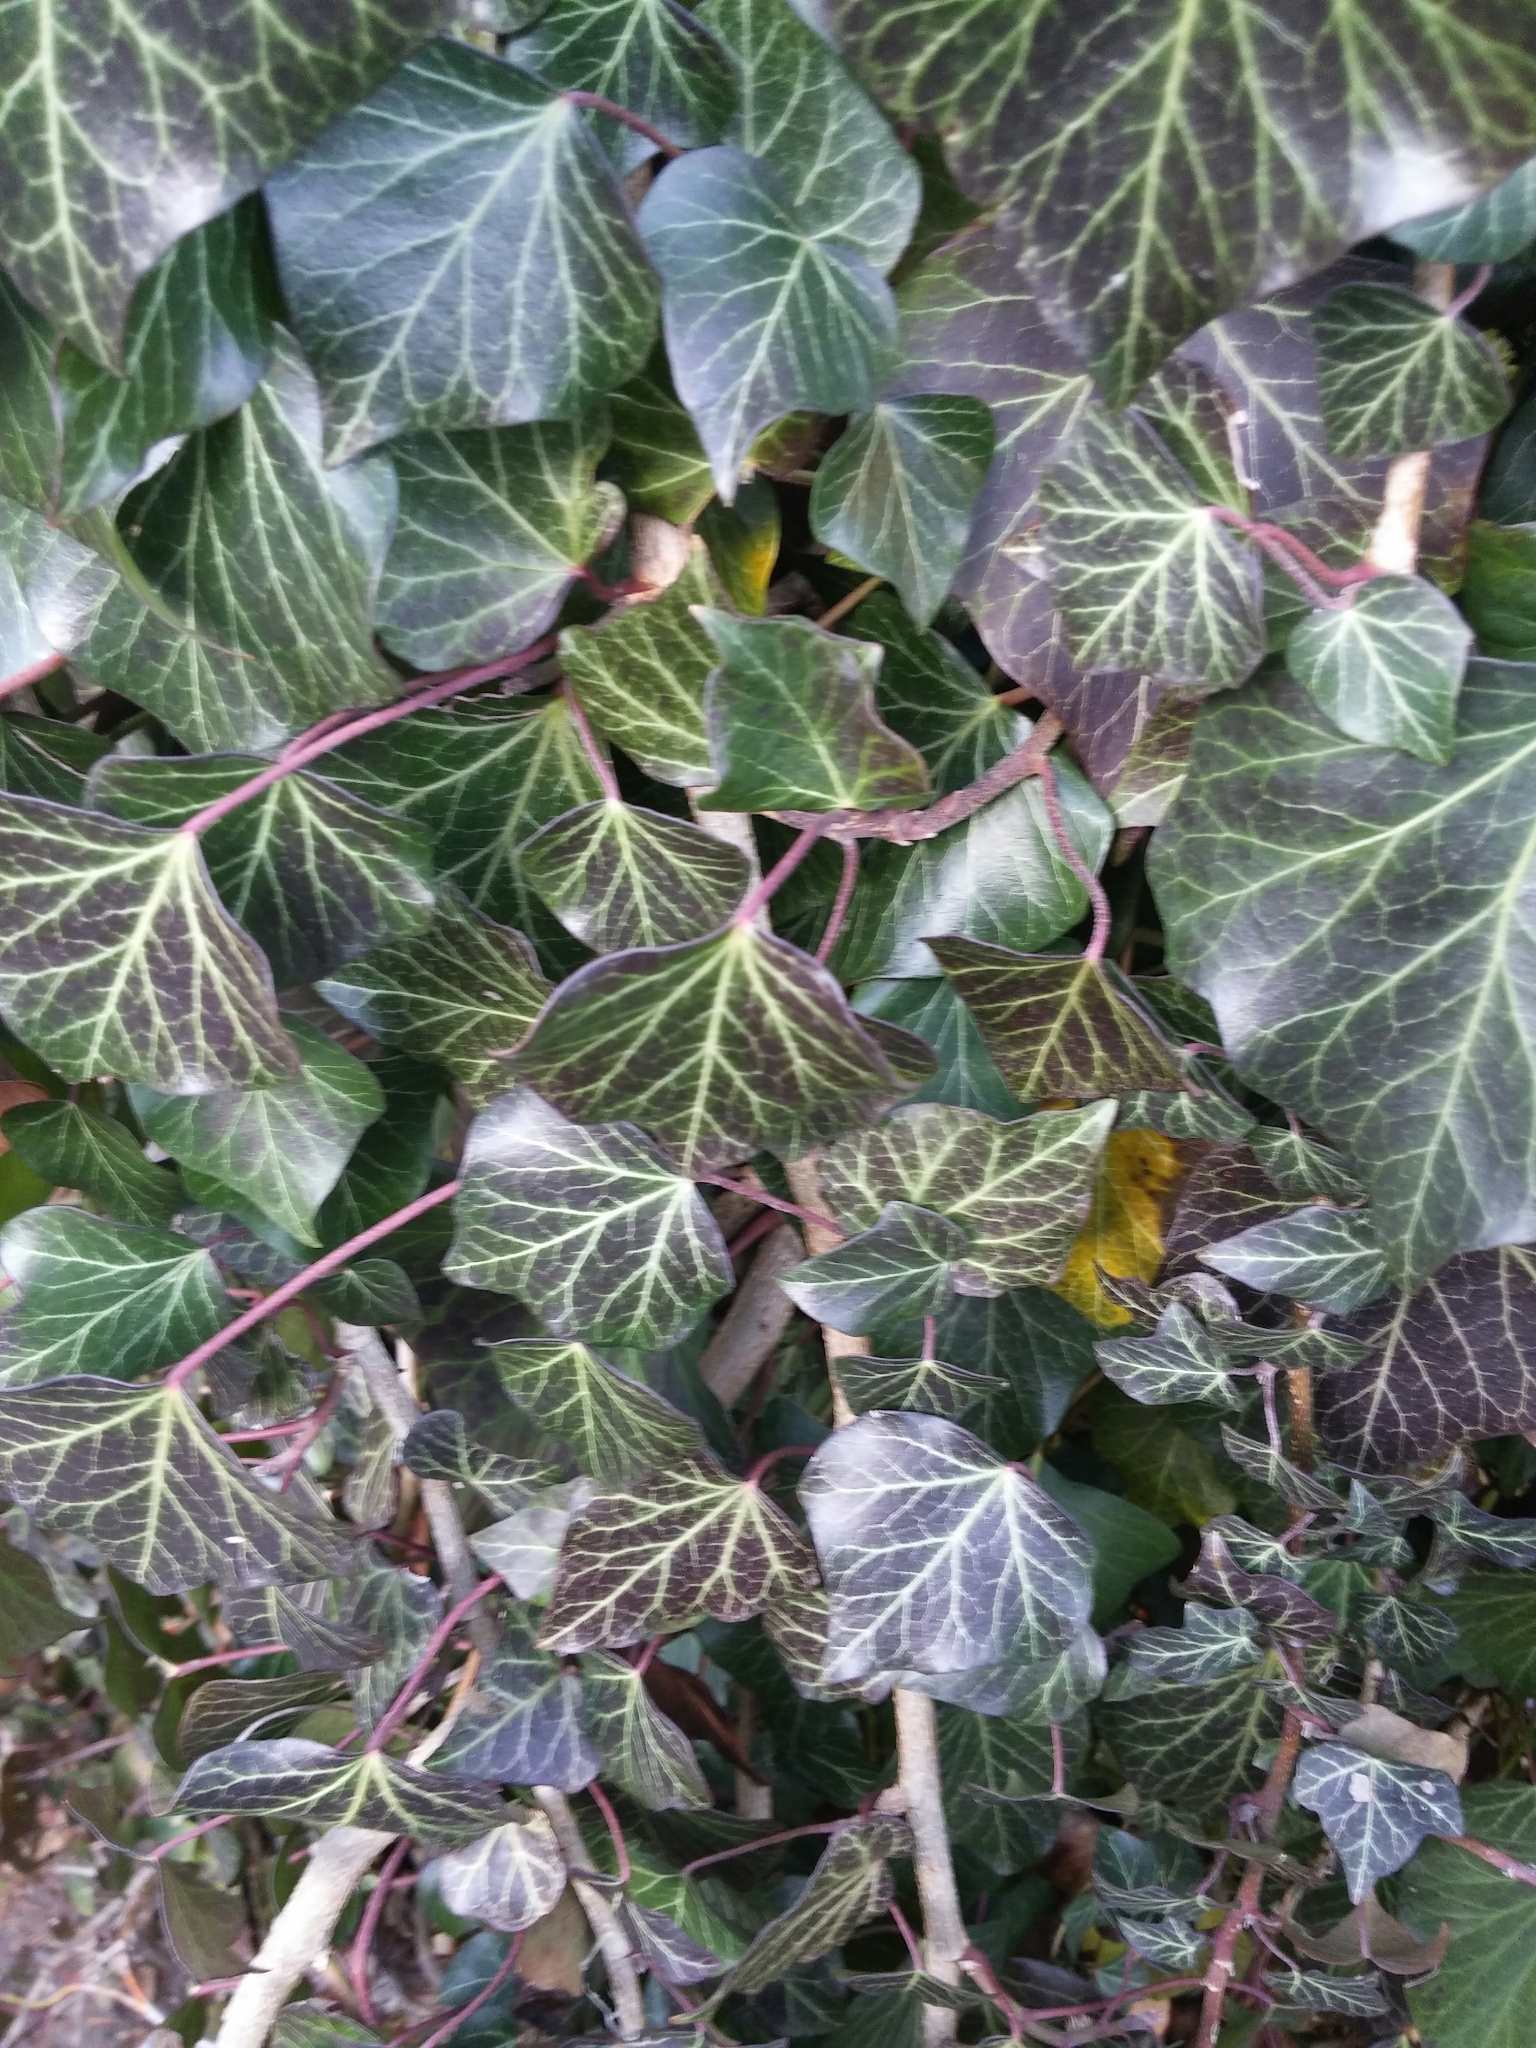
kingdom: Plantae
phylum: Tracheophyta
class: Magnoliopsida
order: Apiales
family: Araliaceae
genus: Hedera
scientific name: Hedera helix
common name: Ivy
